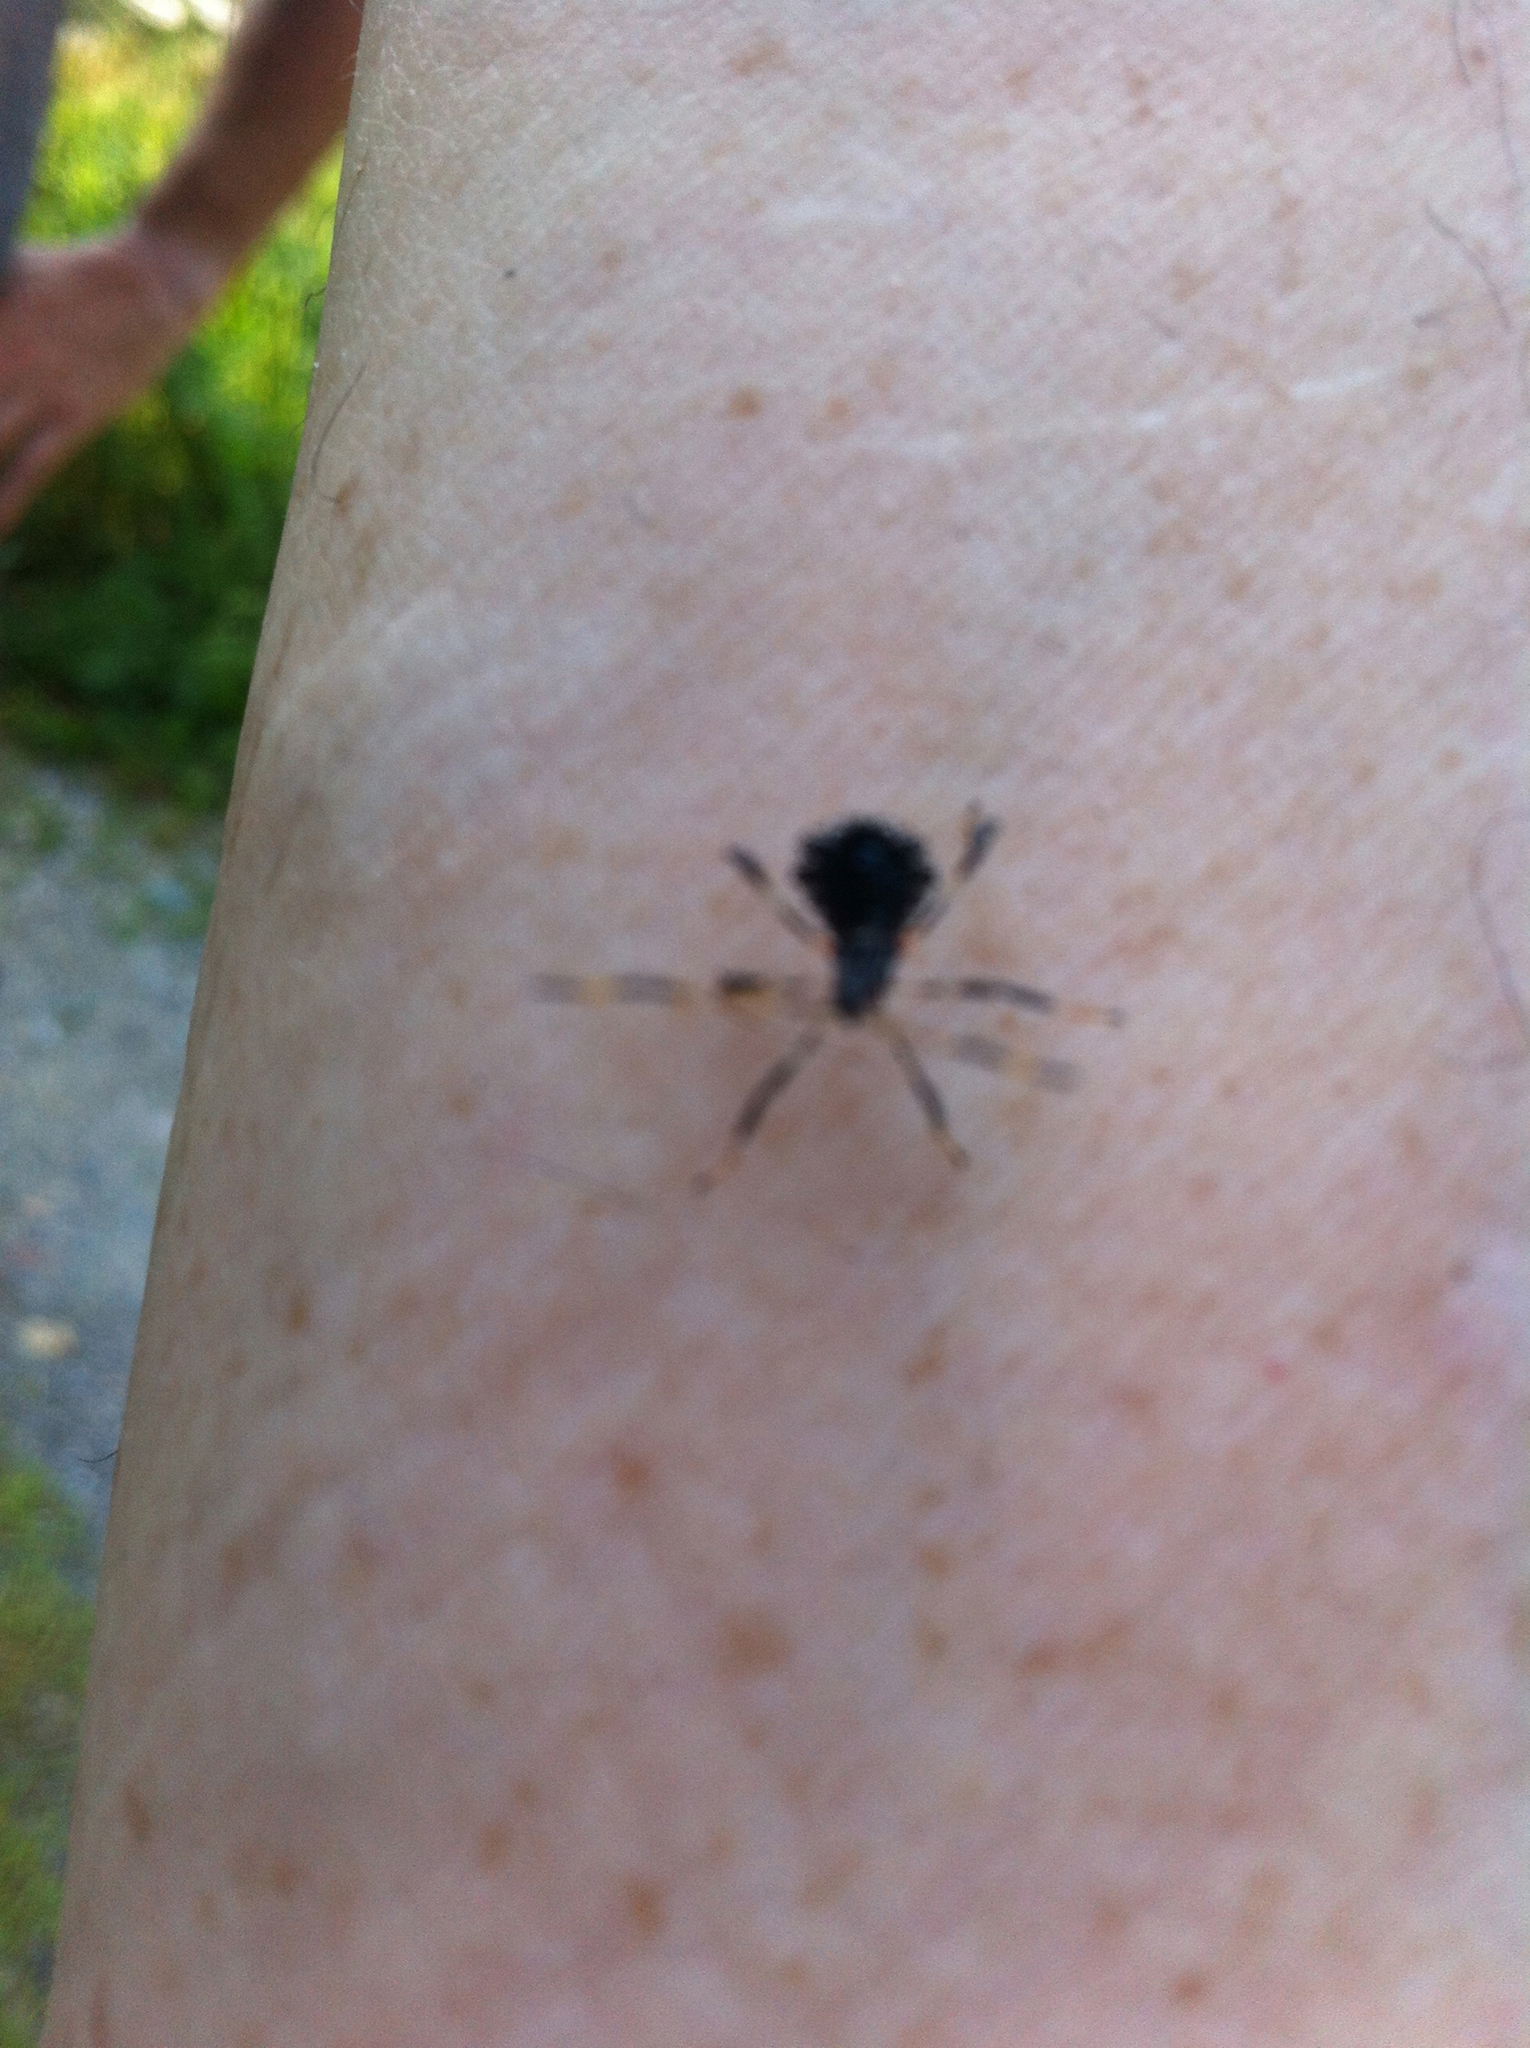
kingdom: Animalia
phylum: Arthropoda
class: Insecta
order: Hemiptera
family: Coreidae
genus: Acanthocephala
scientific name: Acanthocephala terminalis
